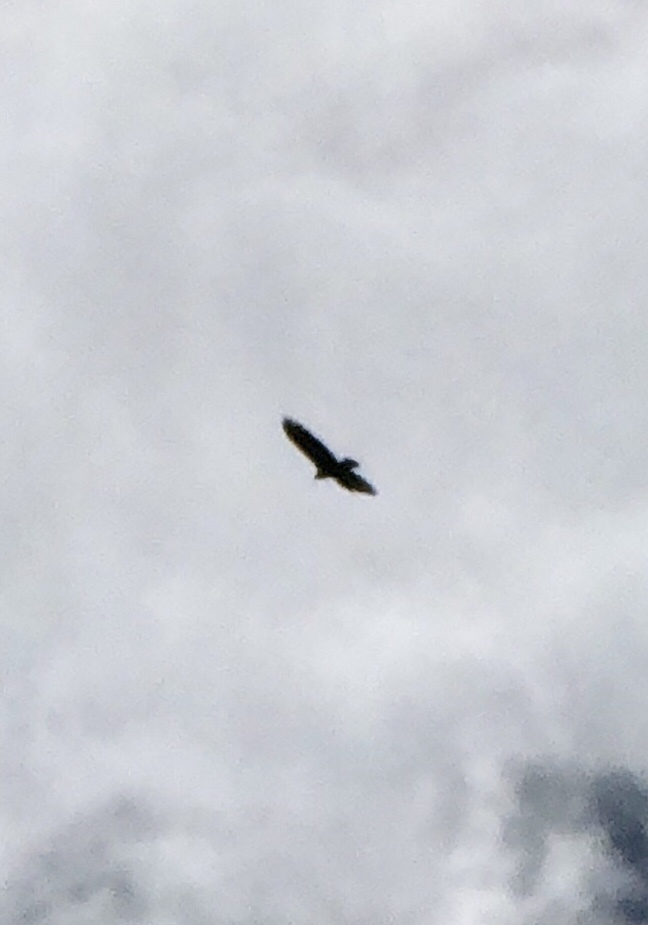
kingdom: Animalia
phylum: Chordata
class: Aves
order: Accipitriformes
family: Cathartidae
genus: Cathartes
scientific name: Cathartes aura
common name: Turkey vulture
